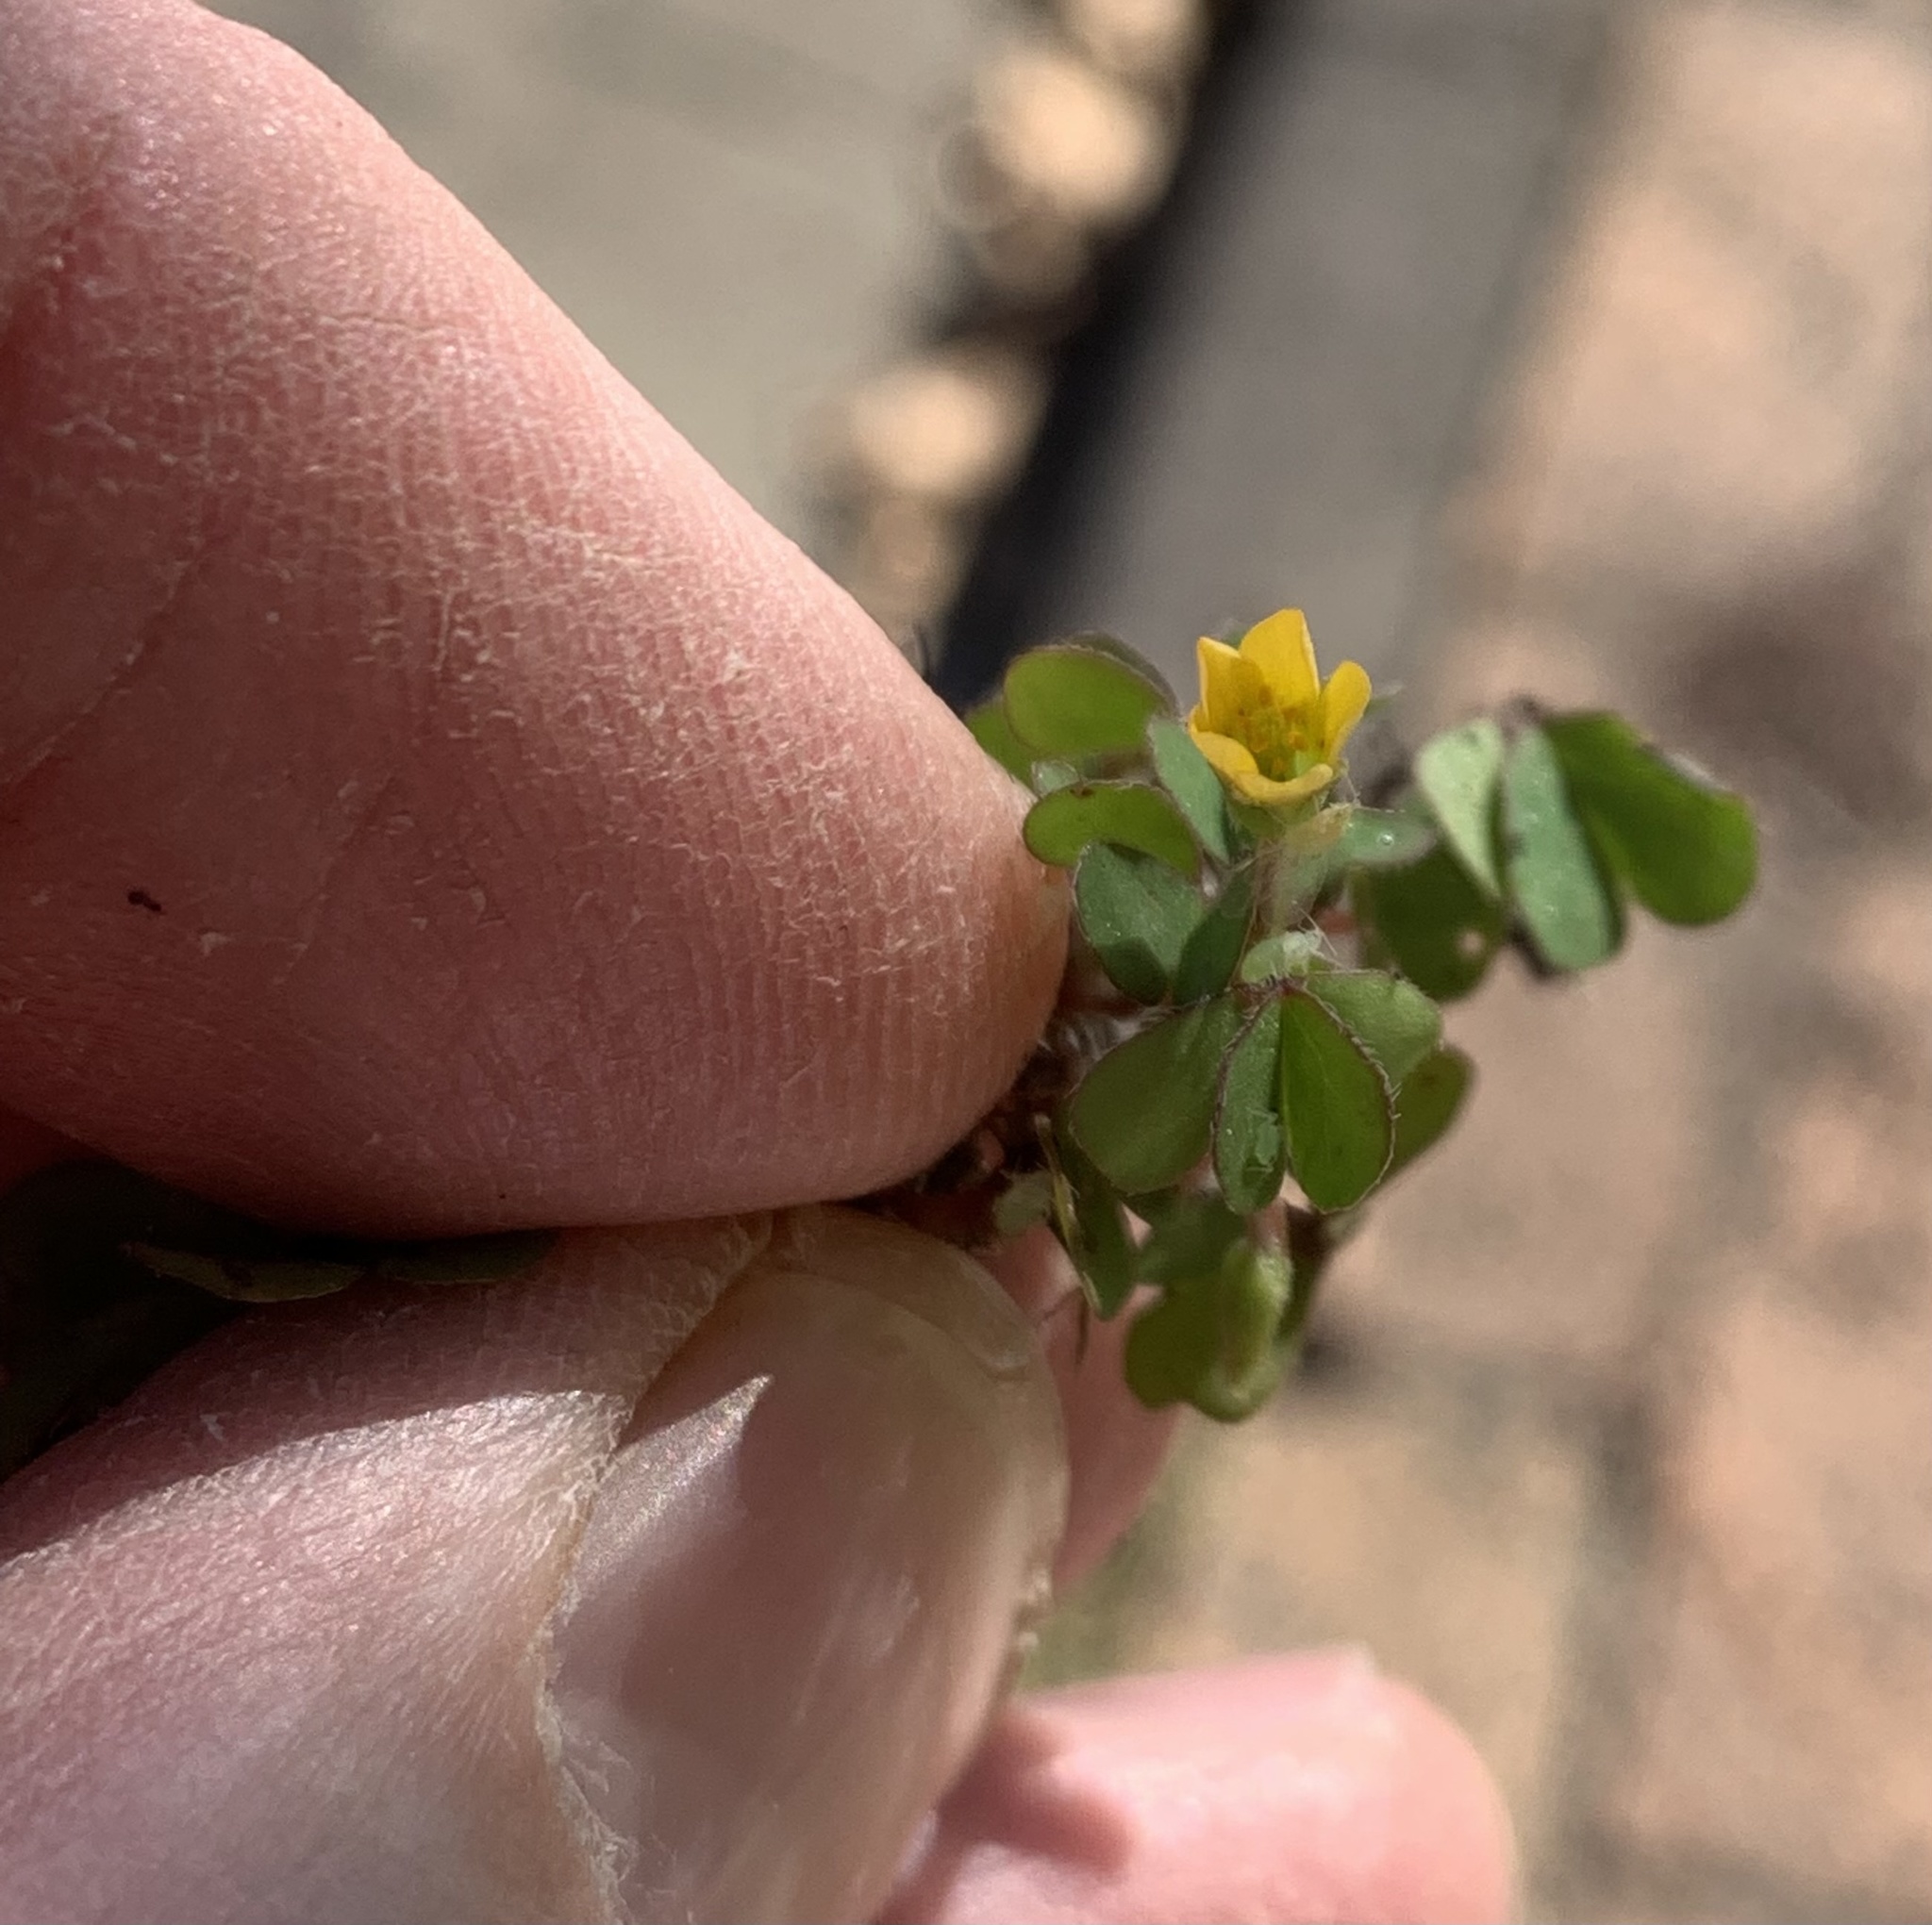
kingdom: Plantae
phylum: Tracheophyta
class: Magnoliopsida
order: Oxalidales
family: Oxalidaceae
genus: Oxalis
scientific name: Oxalis corniculata
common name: Procumbent yellow-sorrel
